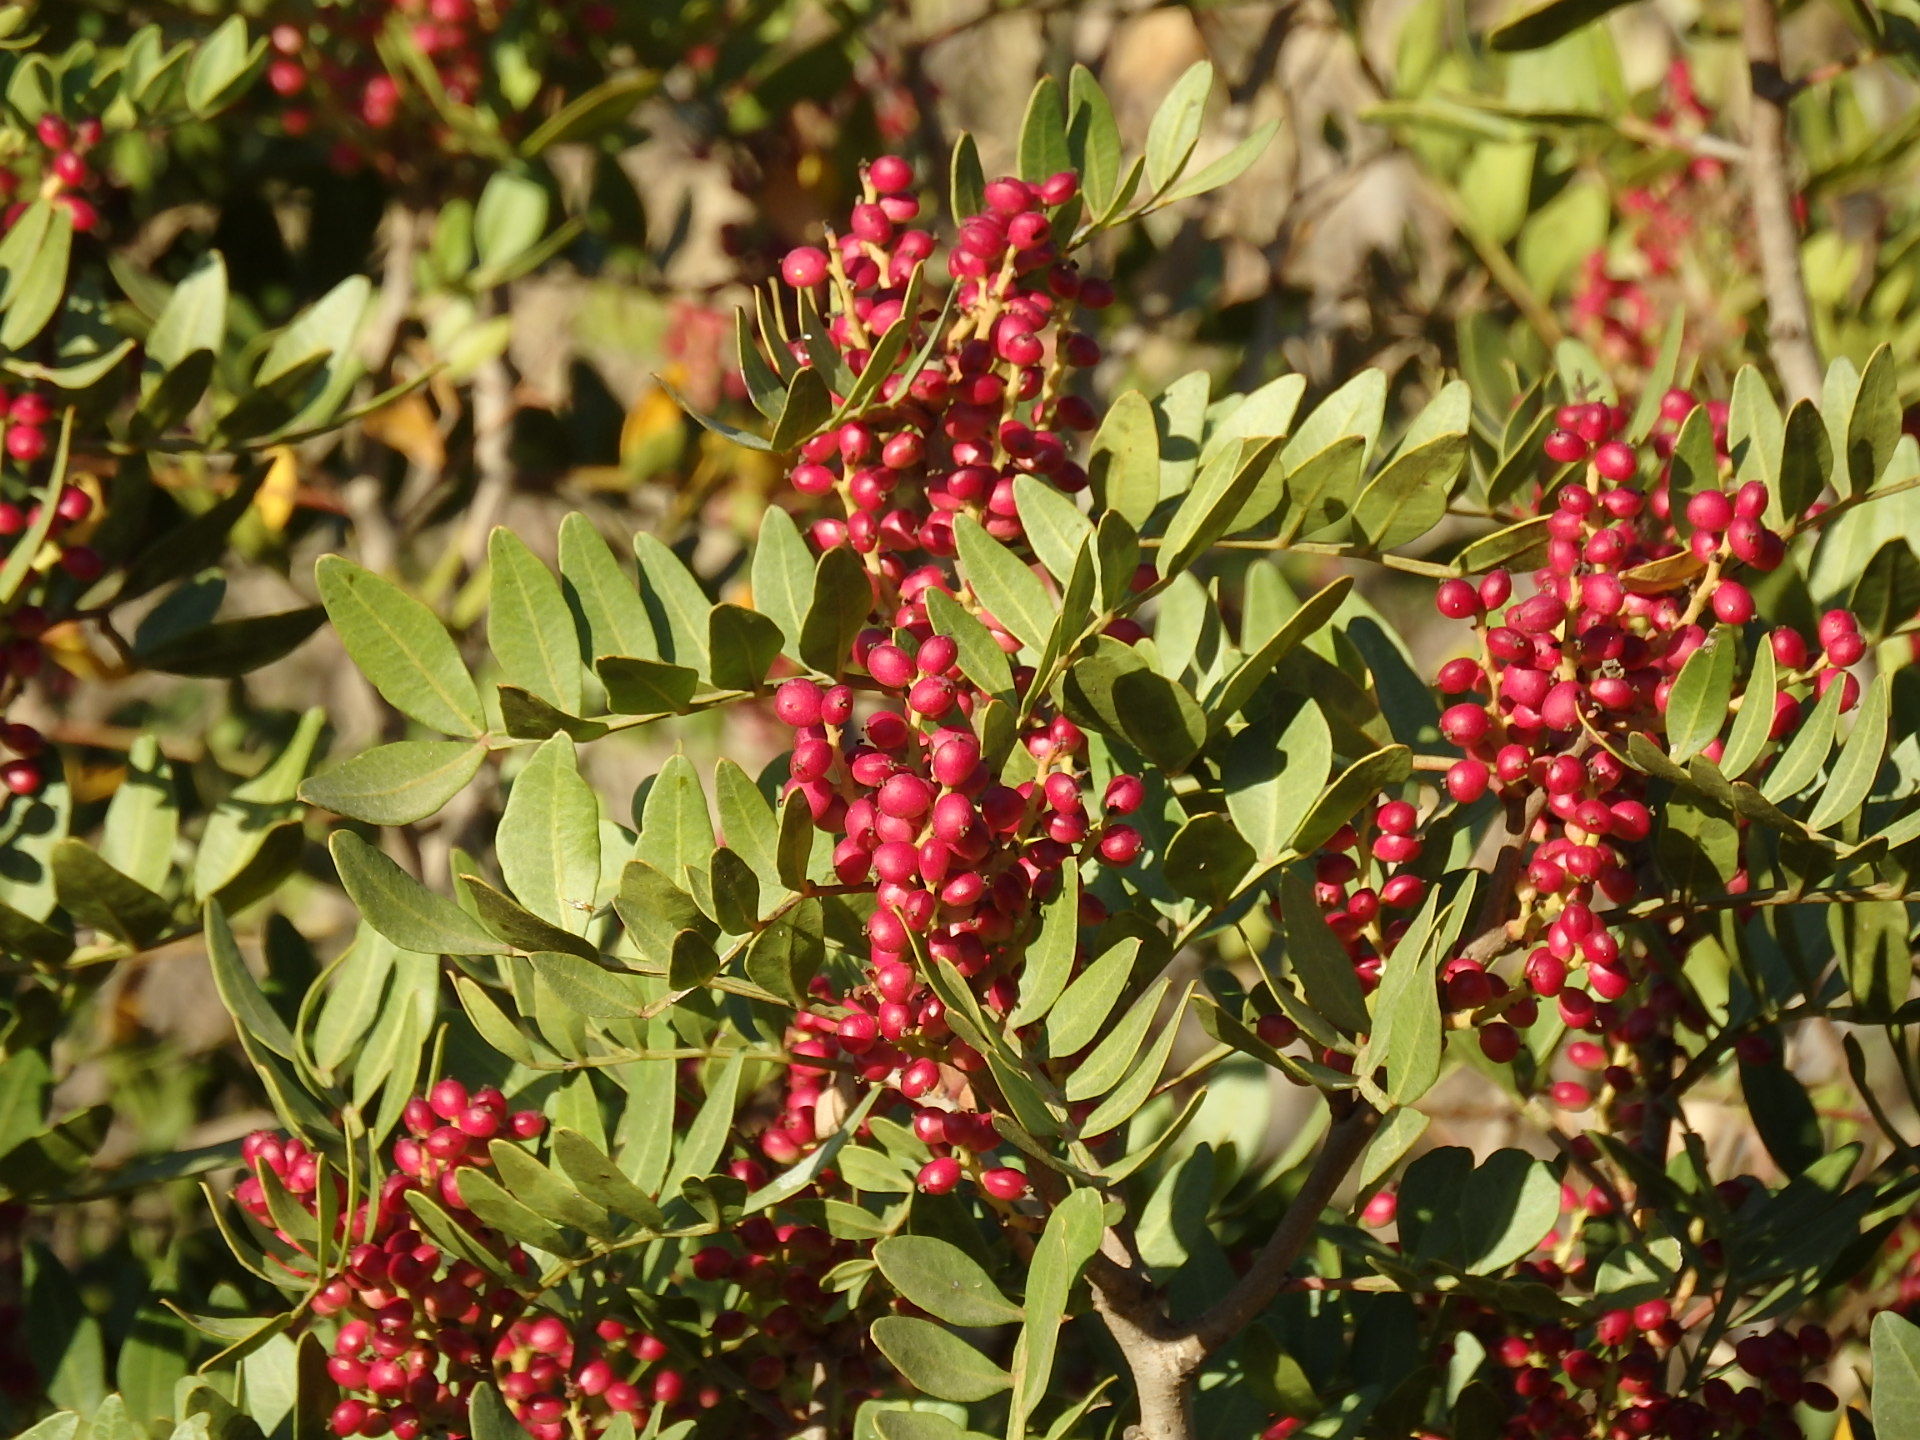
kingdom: Plantae
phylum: Tracheophyta
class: Magnoliopsida
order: Sapindales
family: Anacardiaceae
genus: Pistacia
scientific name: Pistacia lentiscus
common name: Lentisk
